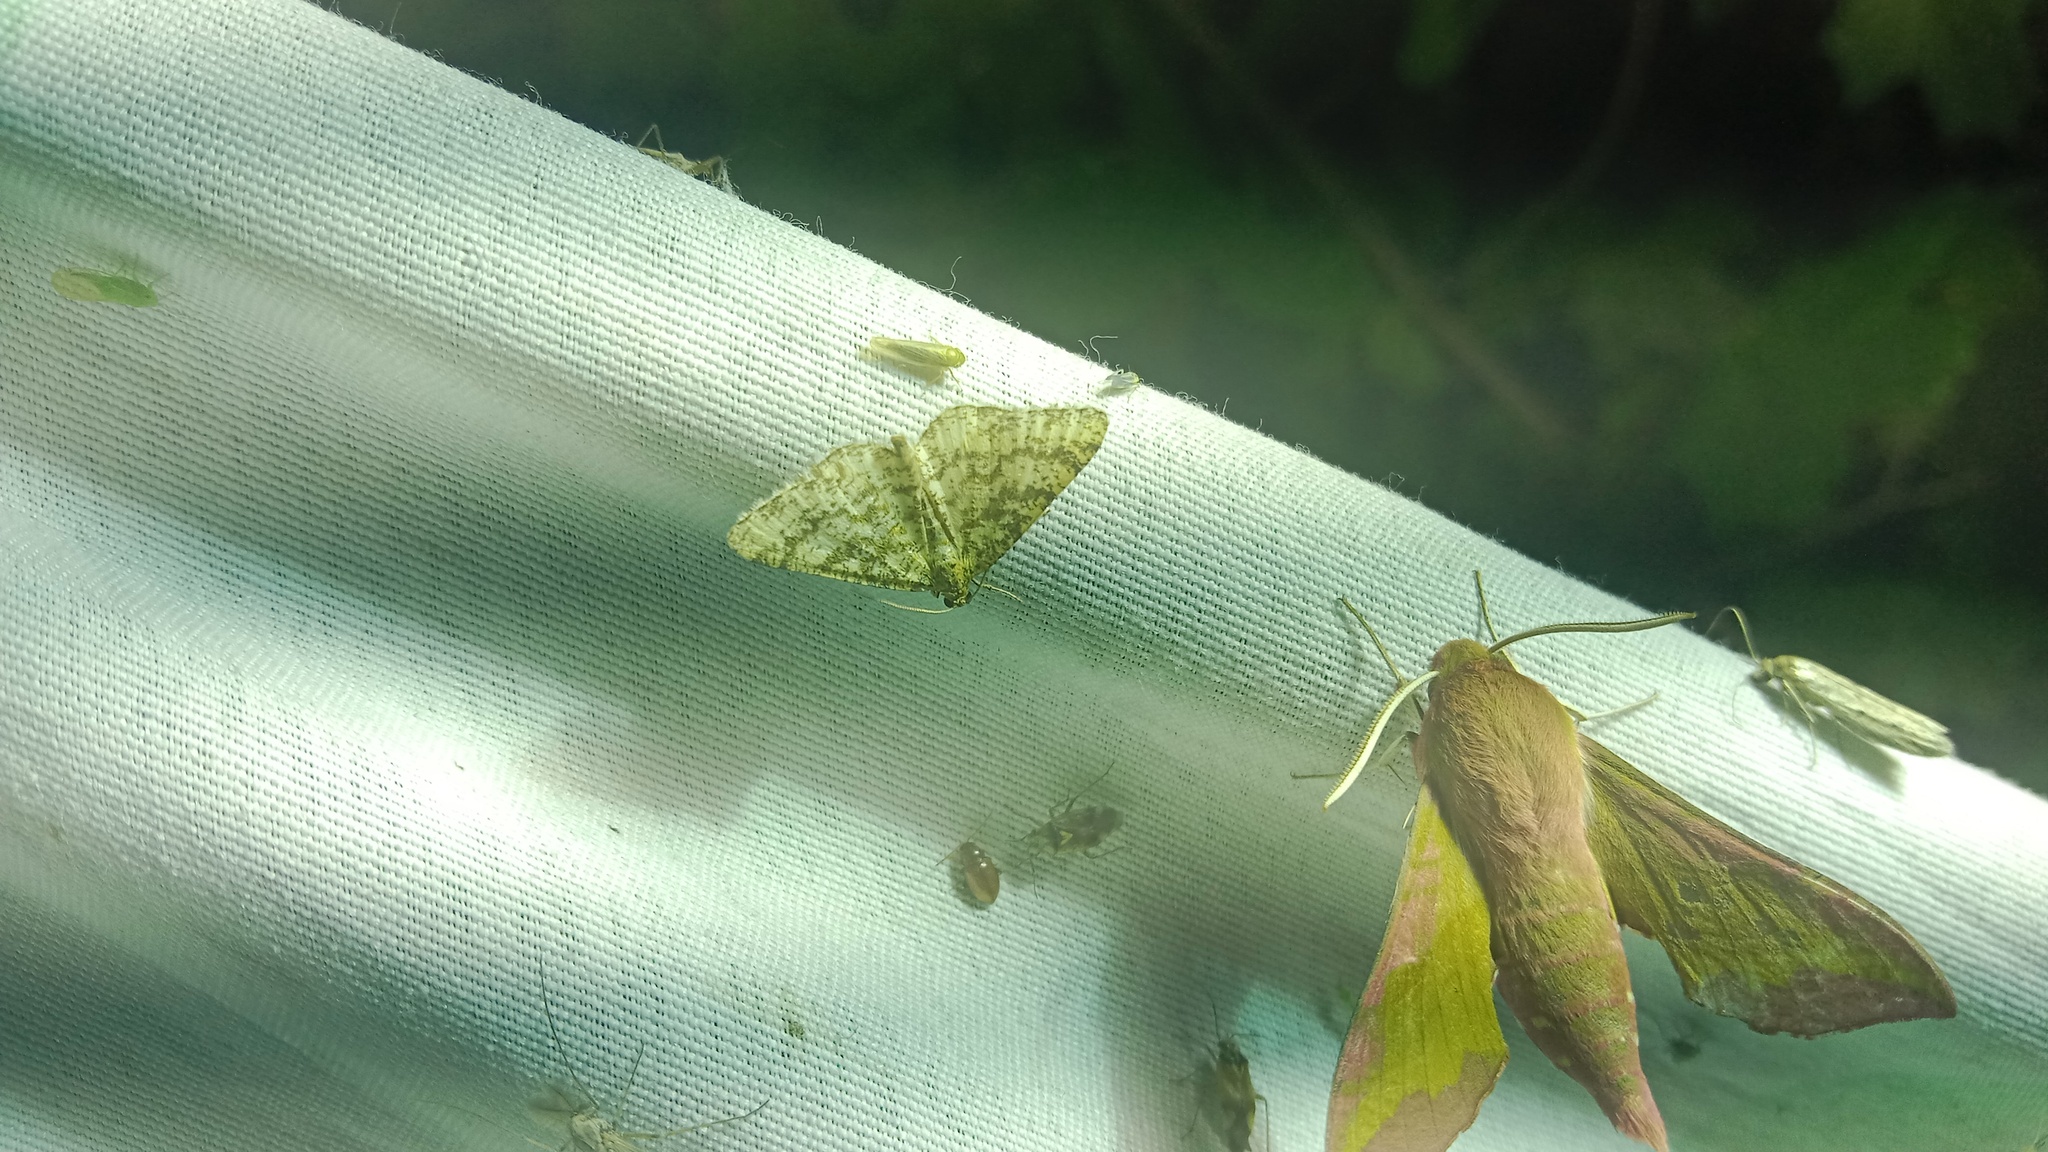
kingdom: Animalia
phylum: Arthropoda
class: Insecta
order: Lepidoptera
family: Geometridae
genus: Heliomata
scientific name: Heliomata glarearia
